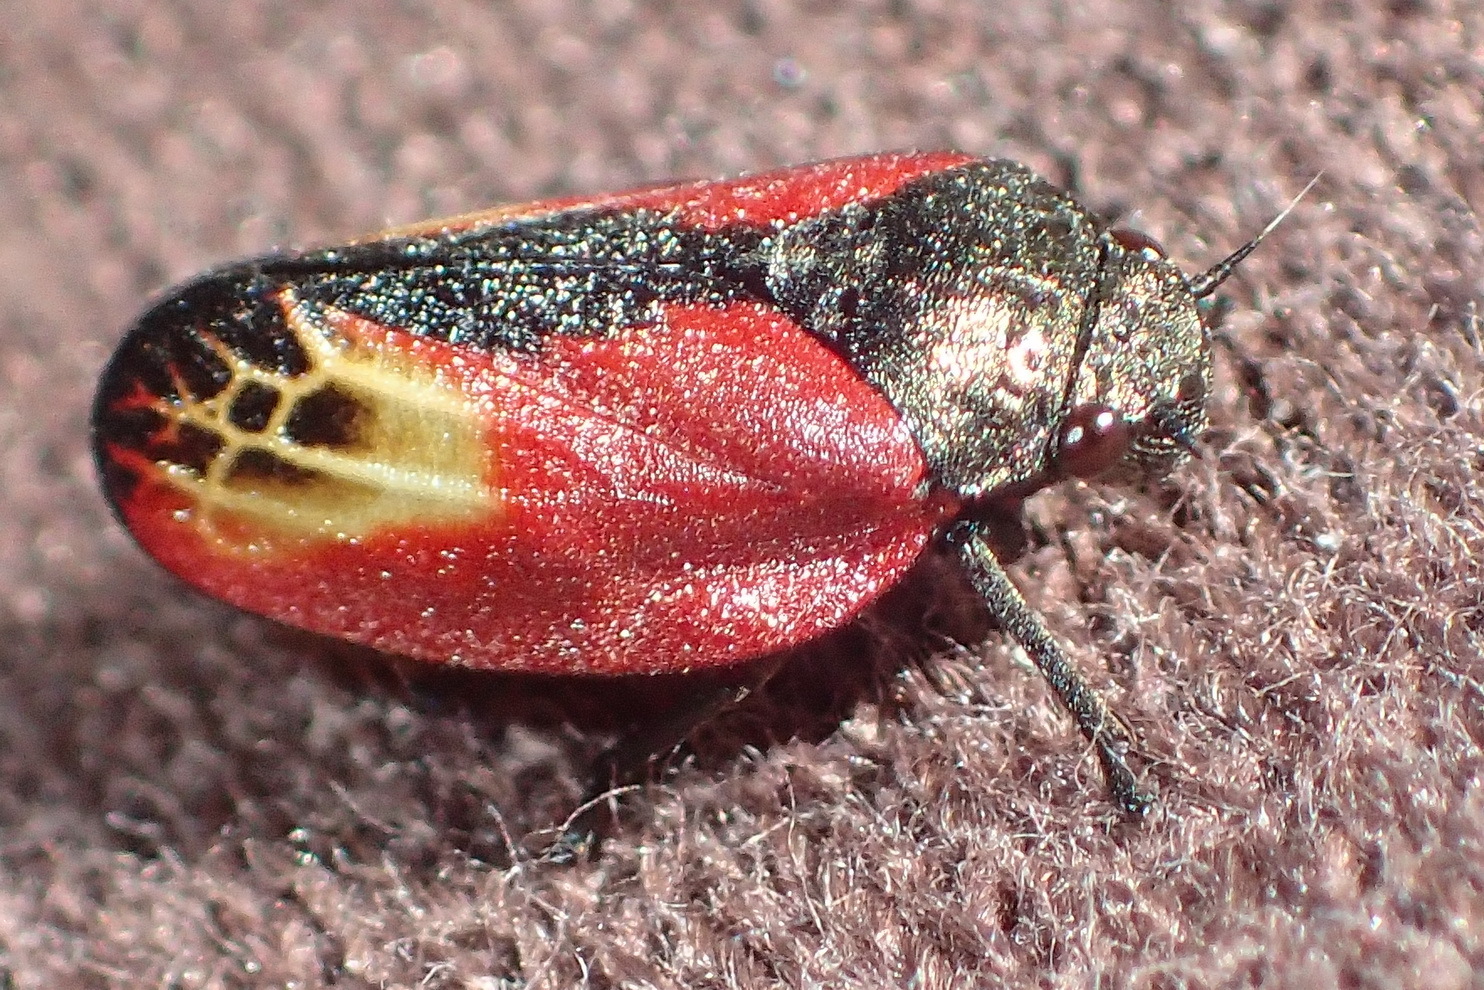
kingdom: Animalia
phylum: Arthropoda
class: Insecta
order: Hemiptera
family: Cercopidae
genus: Rhinaulax
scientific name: Rhinaulax analis
